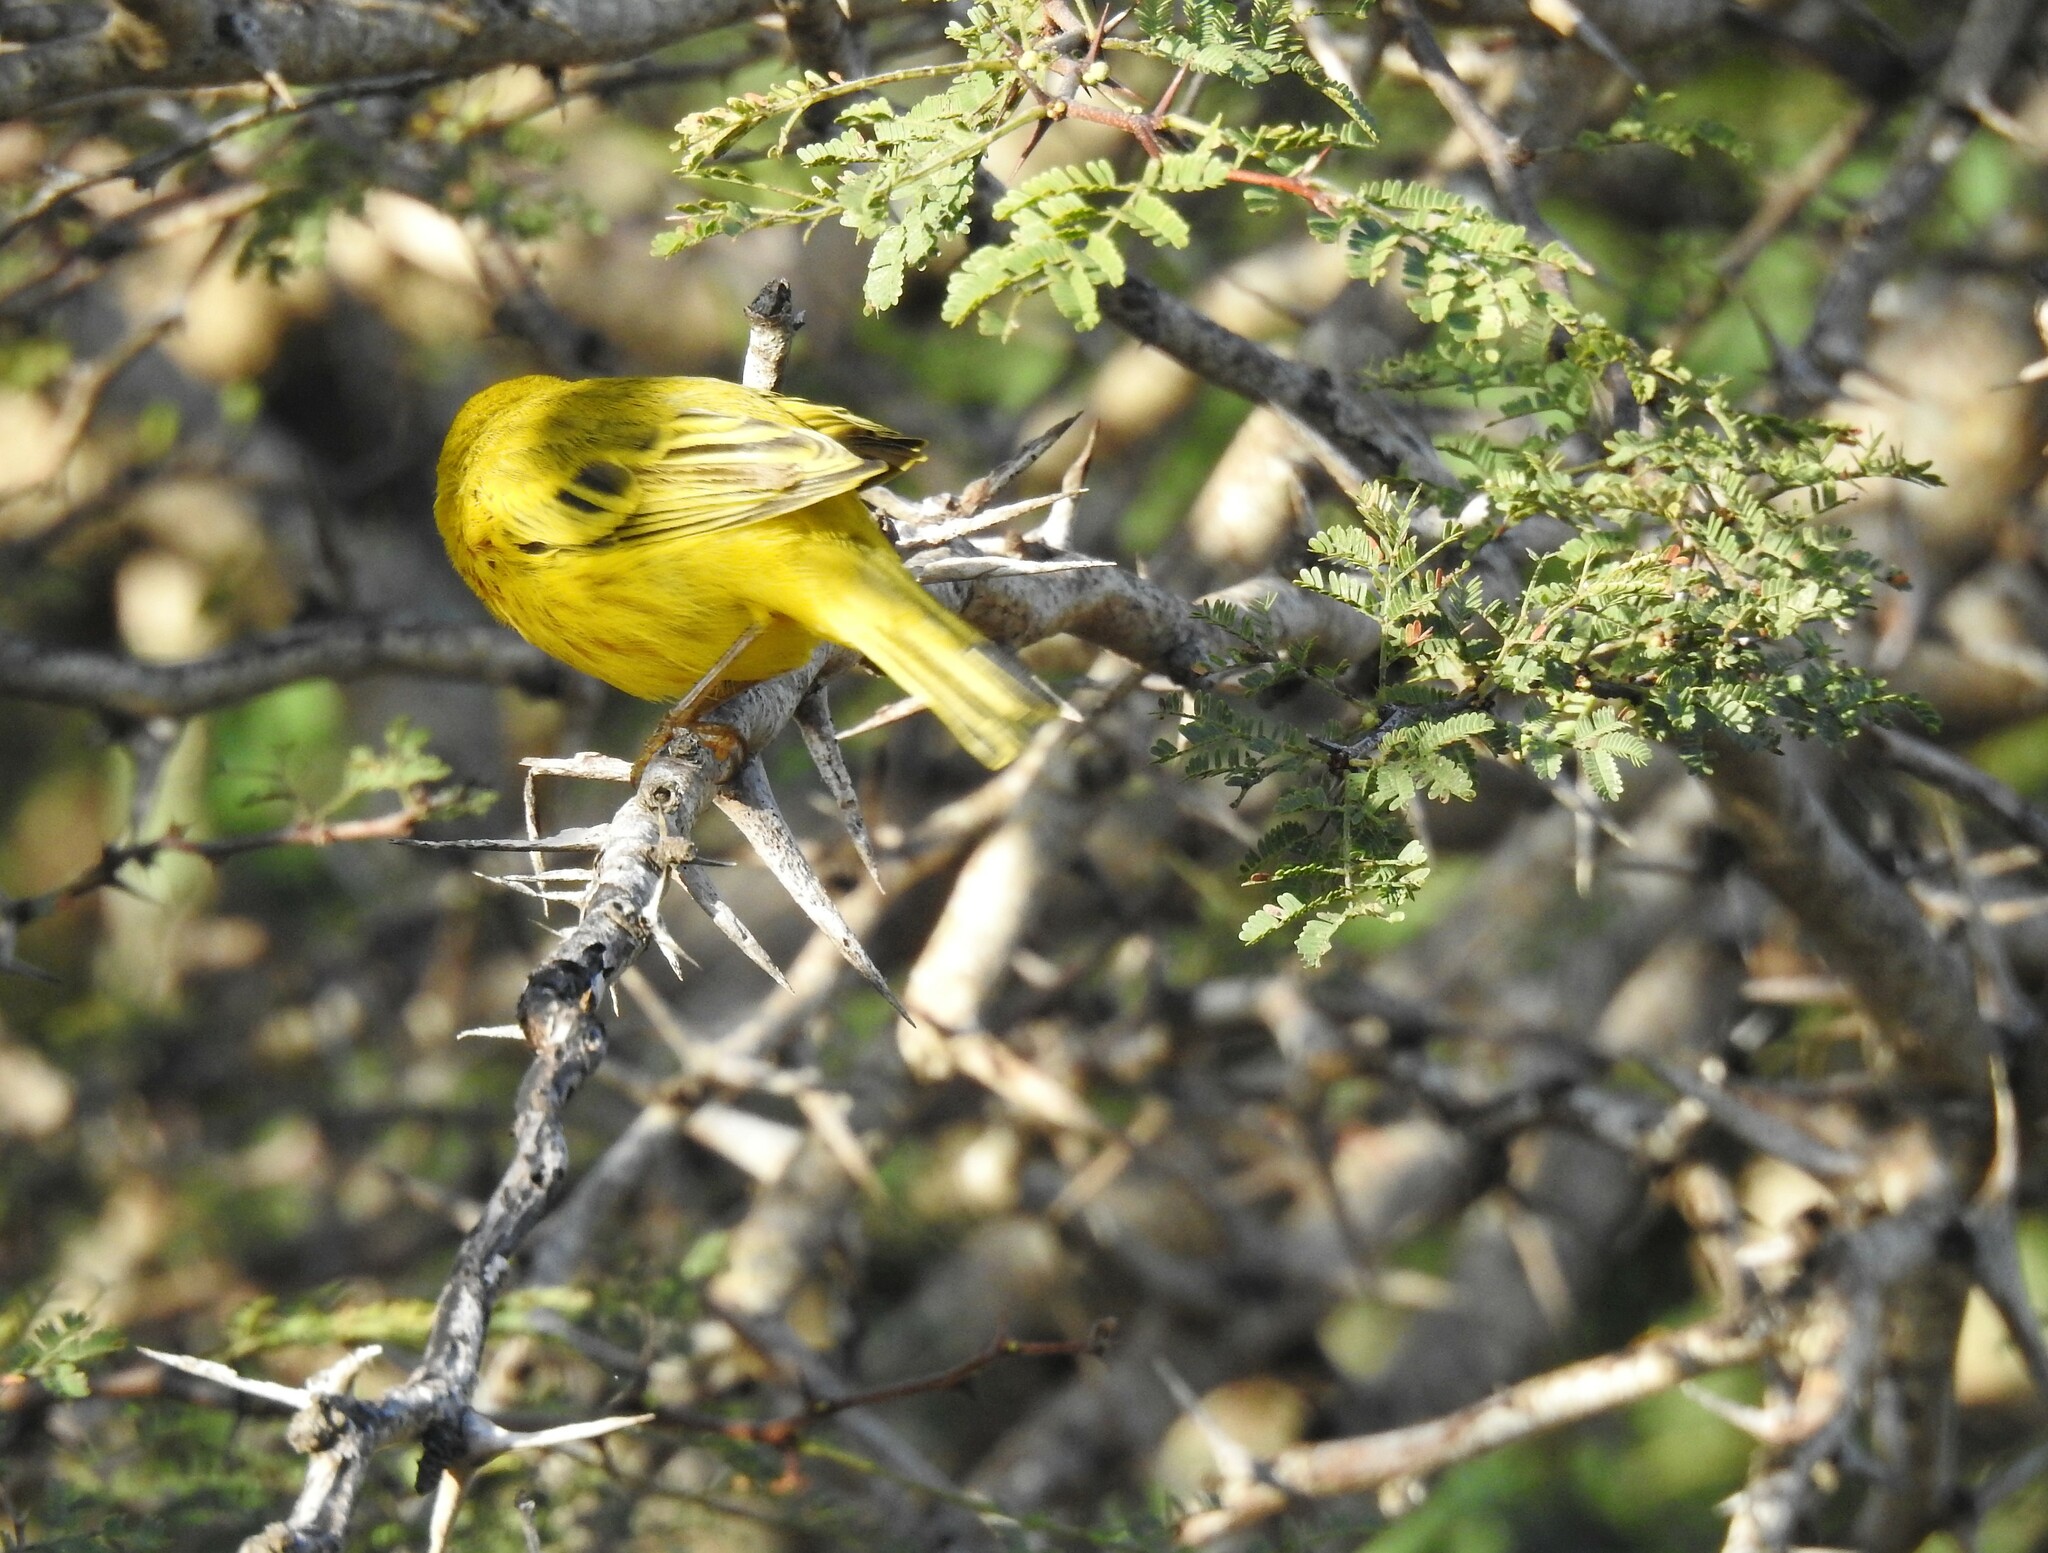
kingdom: Animalia
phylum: Chordata
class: Aves
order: Passeriformes
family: Parulidae
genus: Setophaga
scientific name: Setophaga petechia
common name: Yellow warbler
